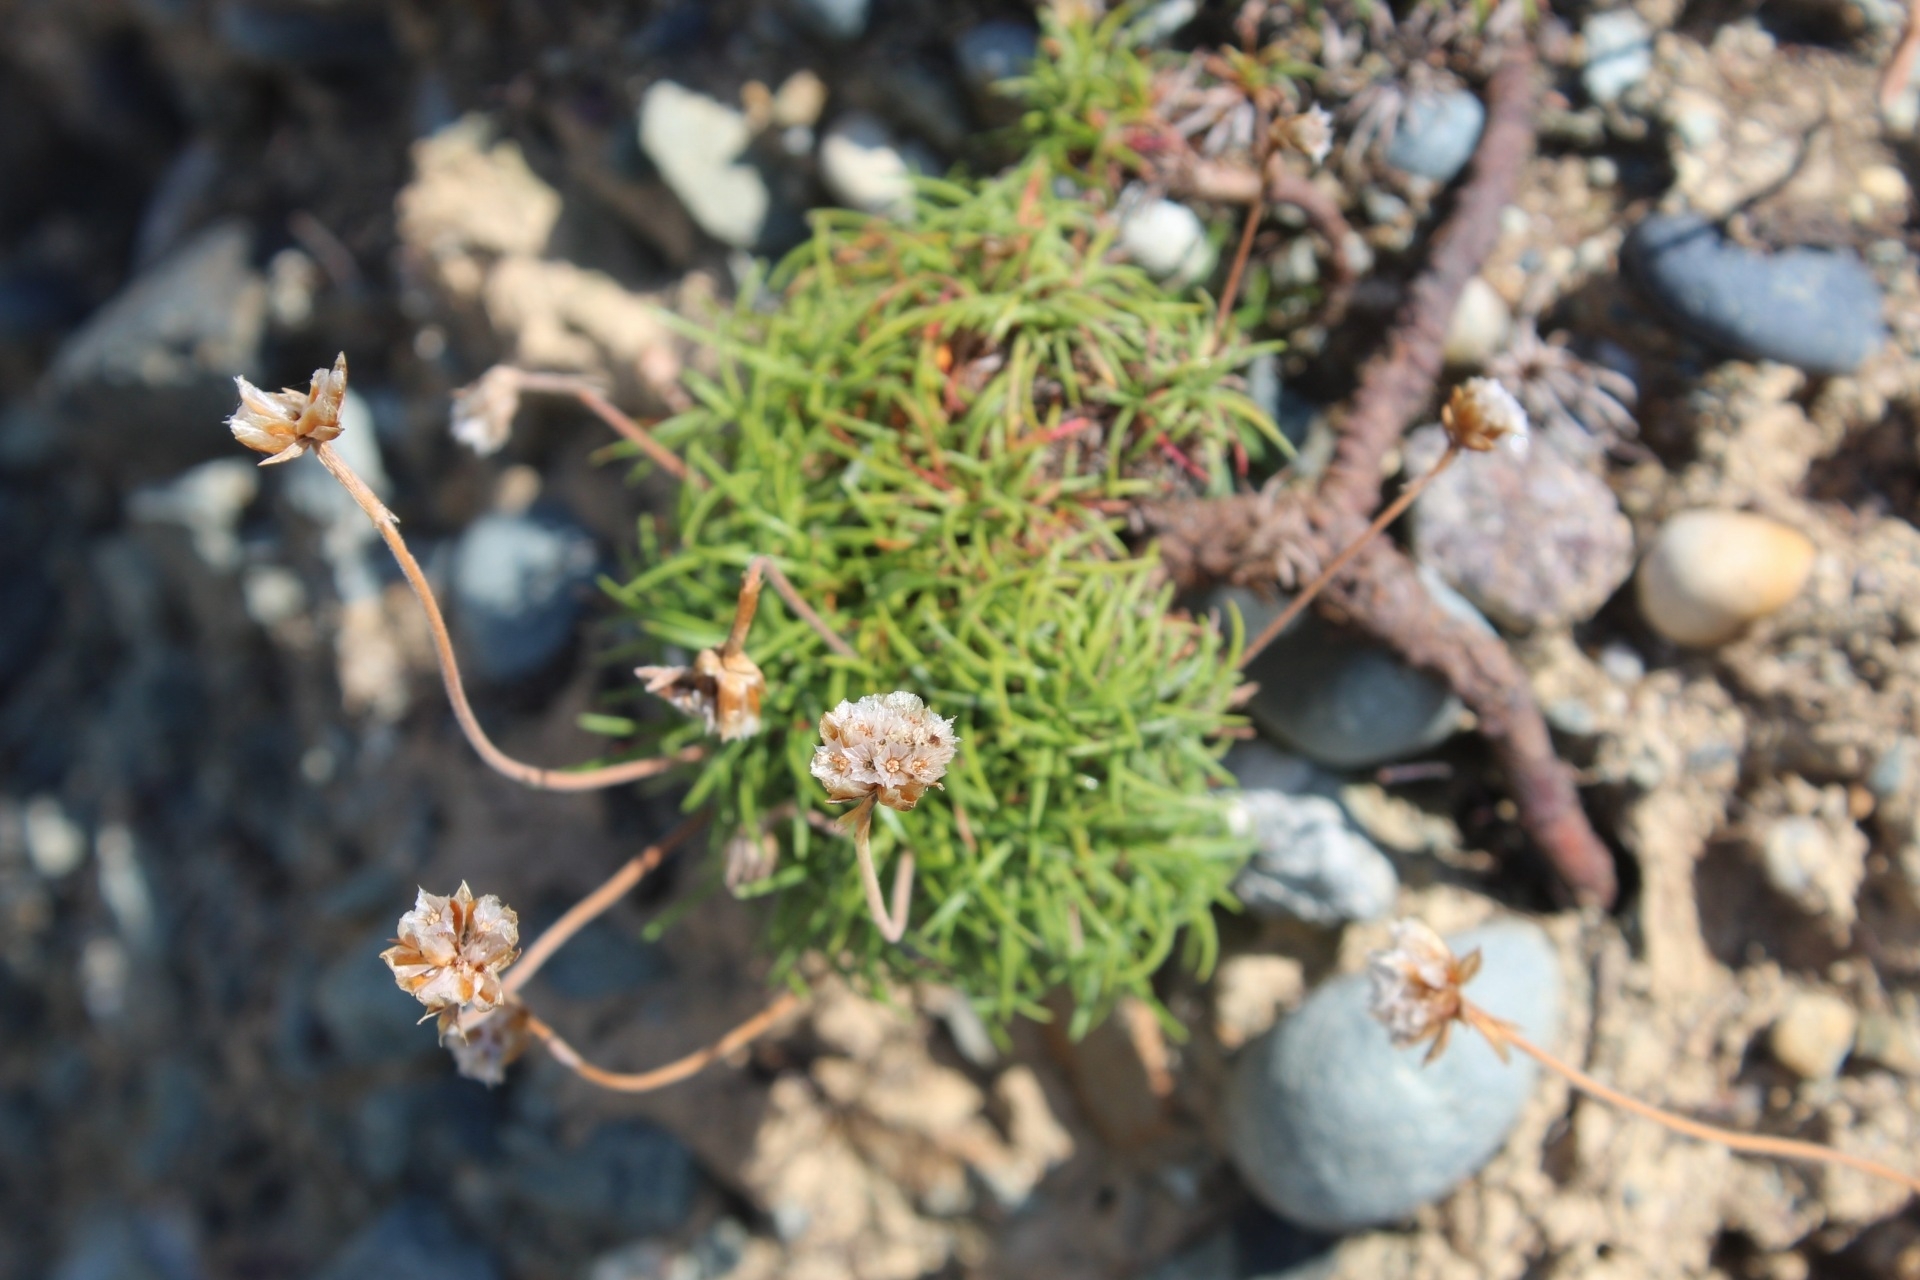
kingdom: Plantae
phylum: Tracheophyta
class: Magnoliopsida
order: Caryophyllales
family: Plumbaginaceae
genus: Armeria
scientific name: Armeria maritima
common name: Thrift
